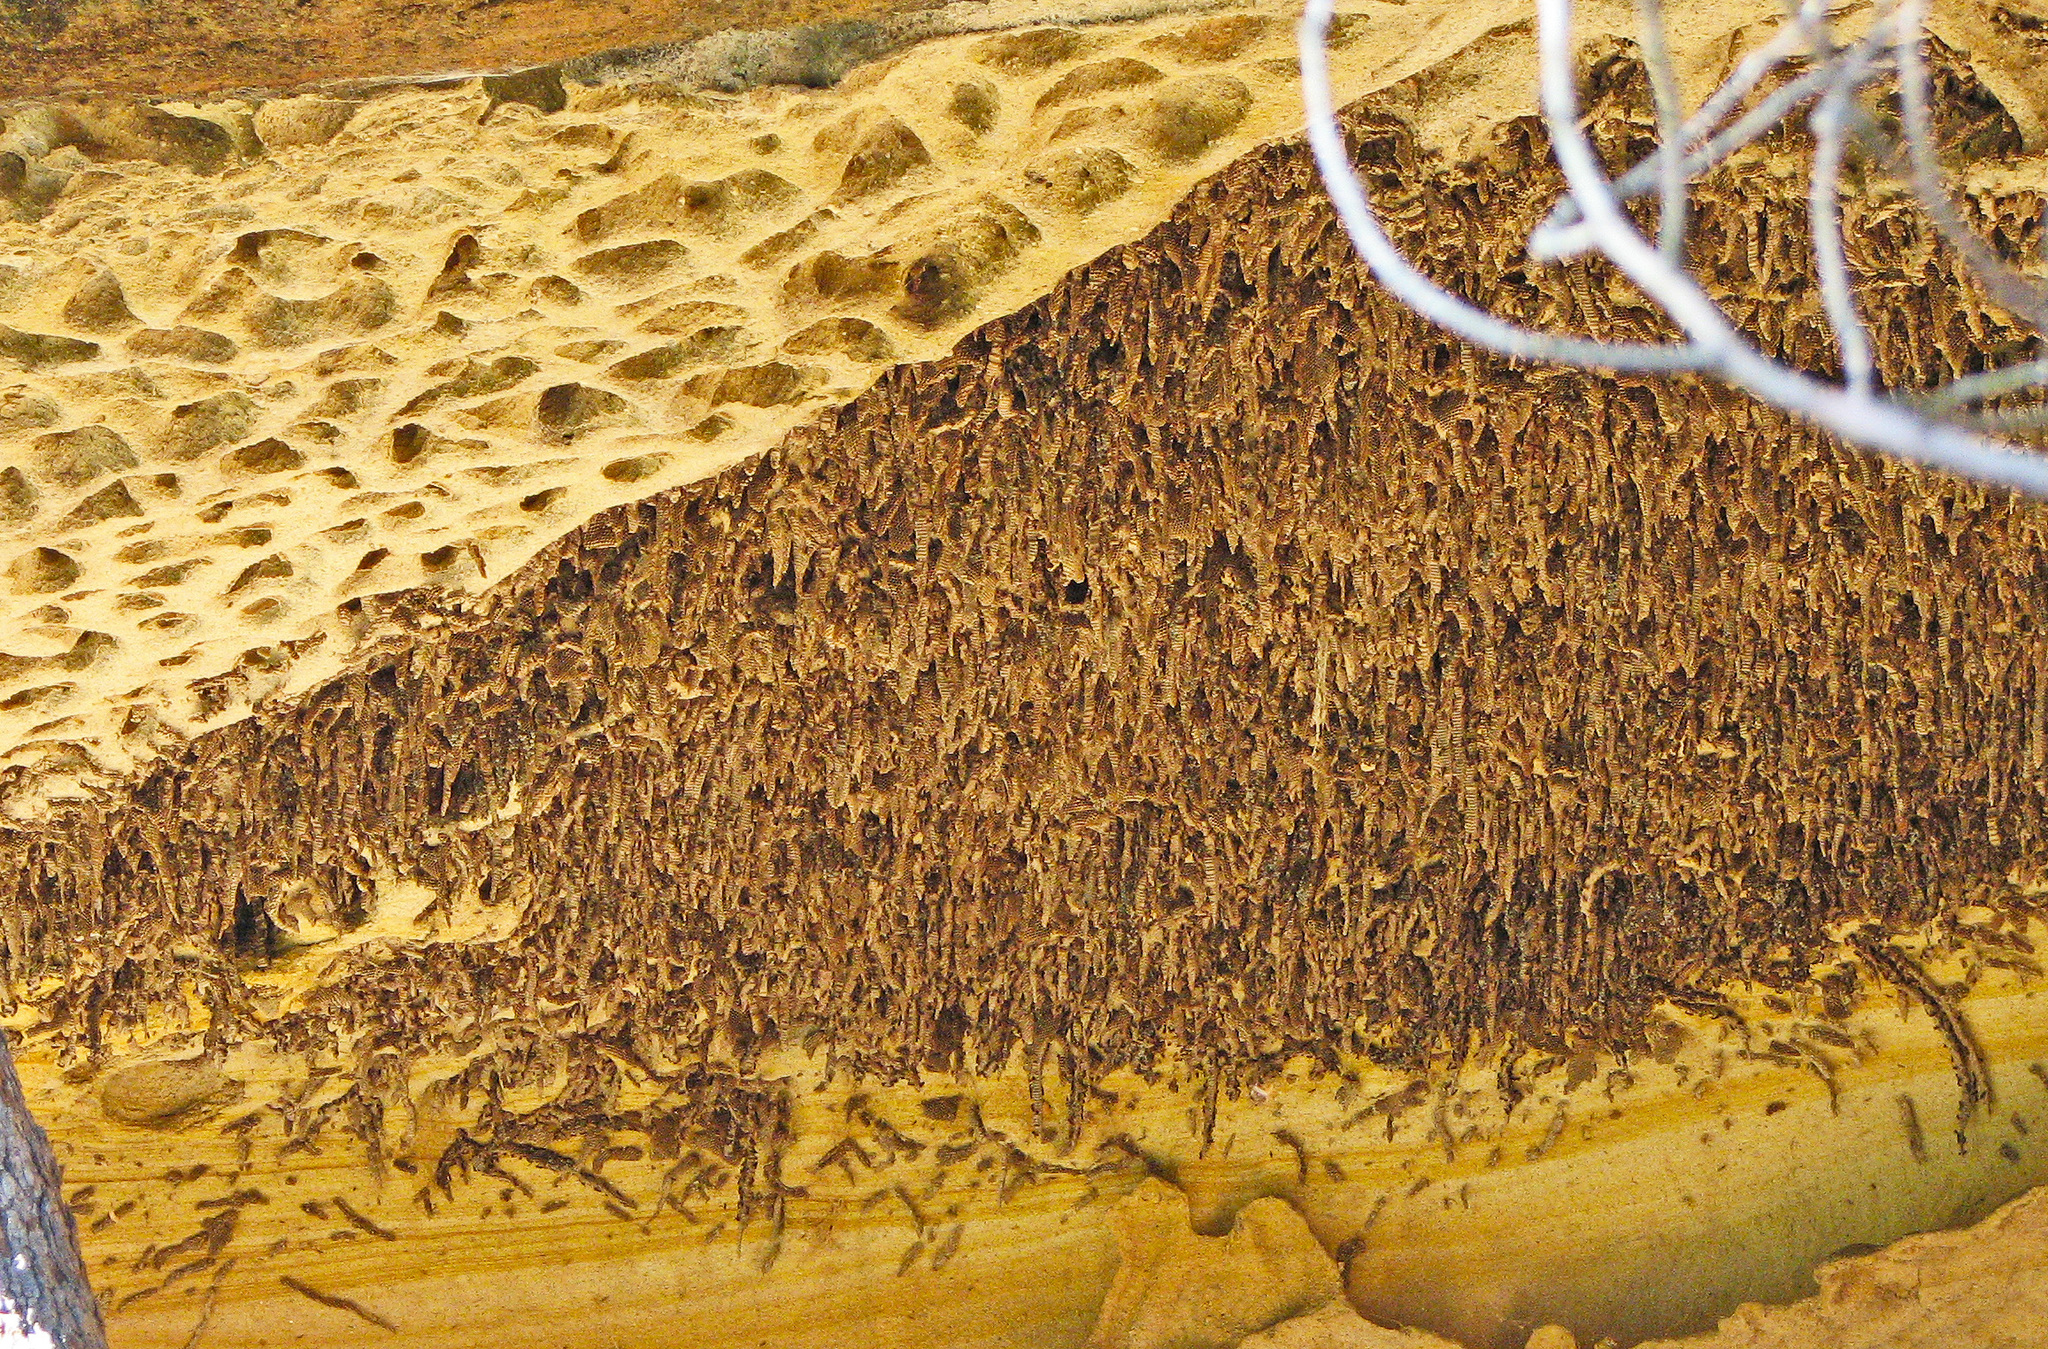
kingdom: Animalia
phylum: Arthropoda
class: Insecta
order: Hymenoptera
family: Vespidae
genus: Ropalidia
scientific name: Ropalidia plebeiana
